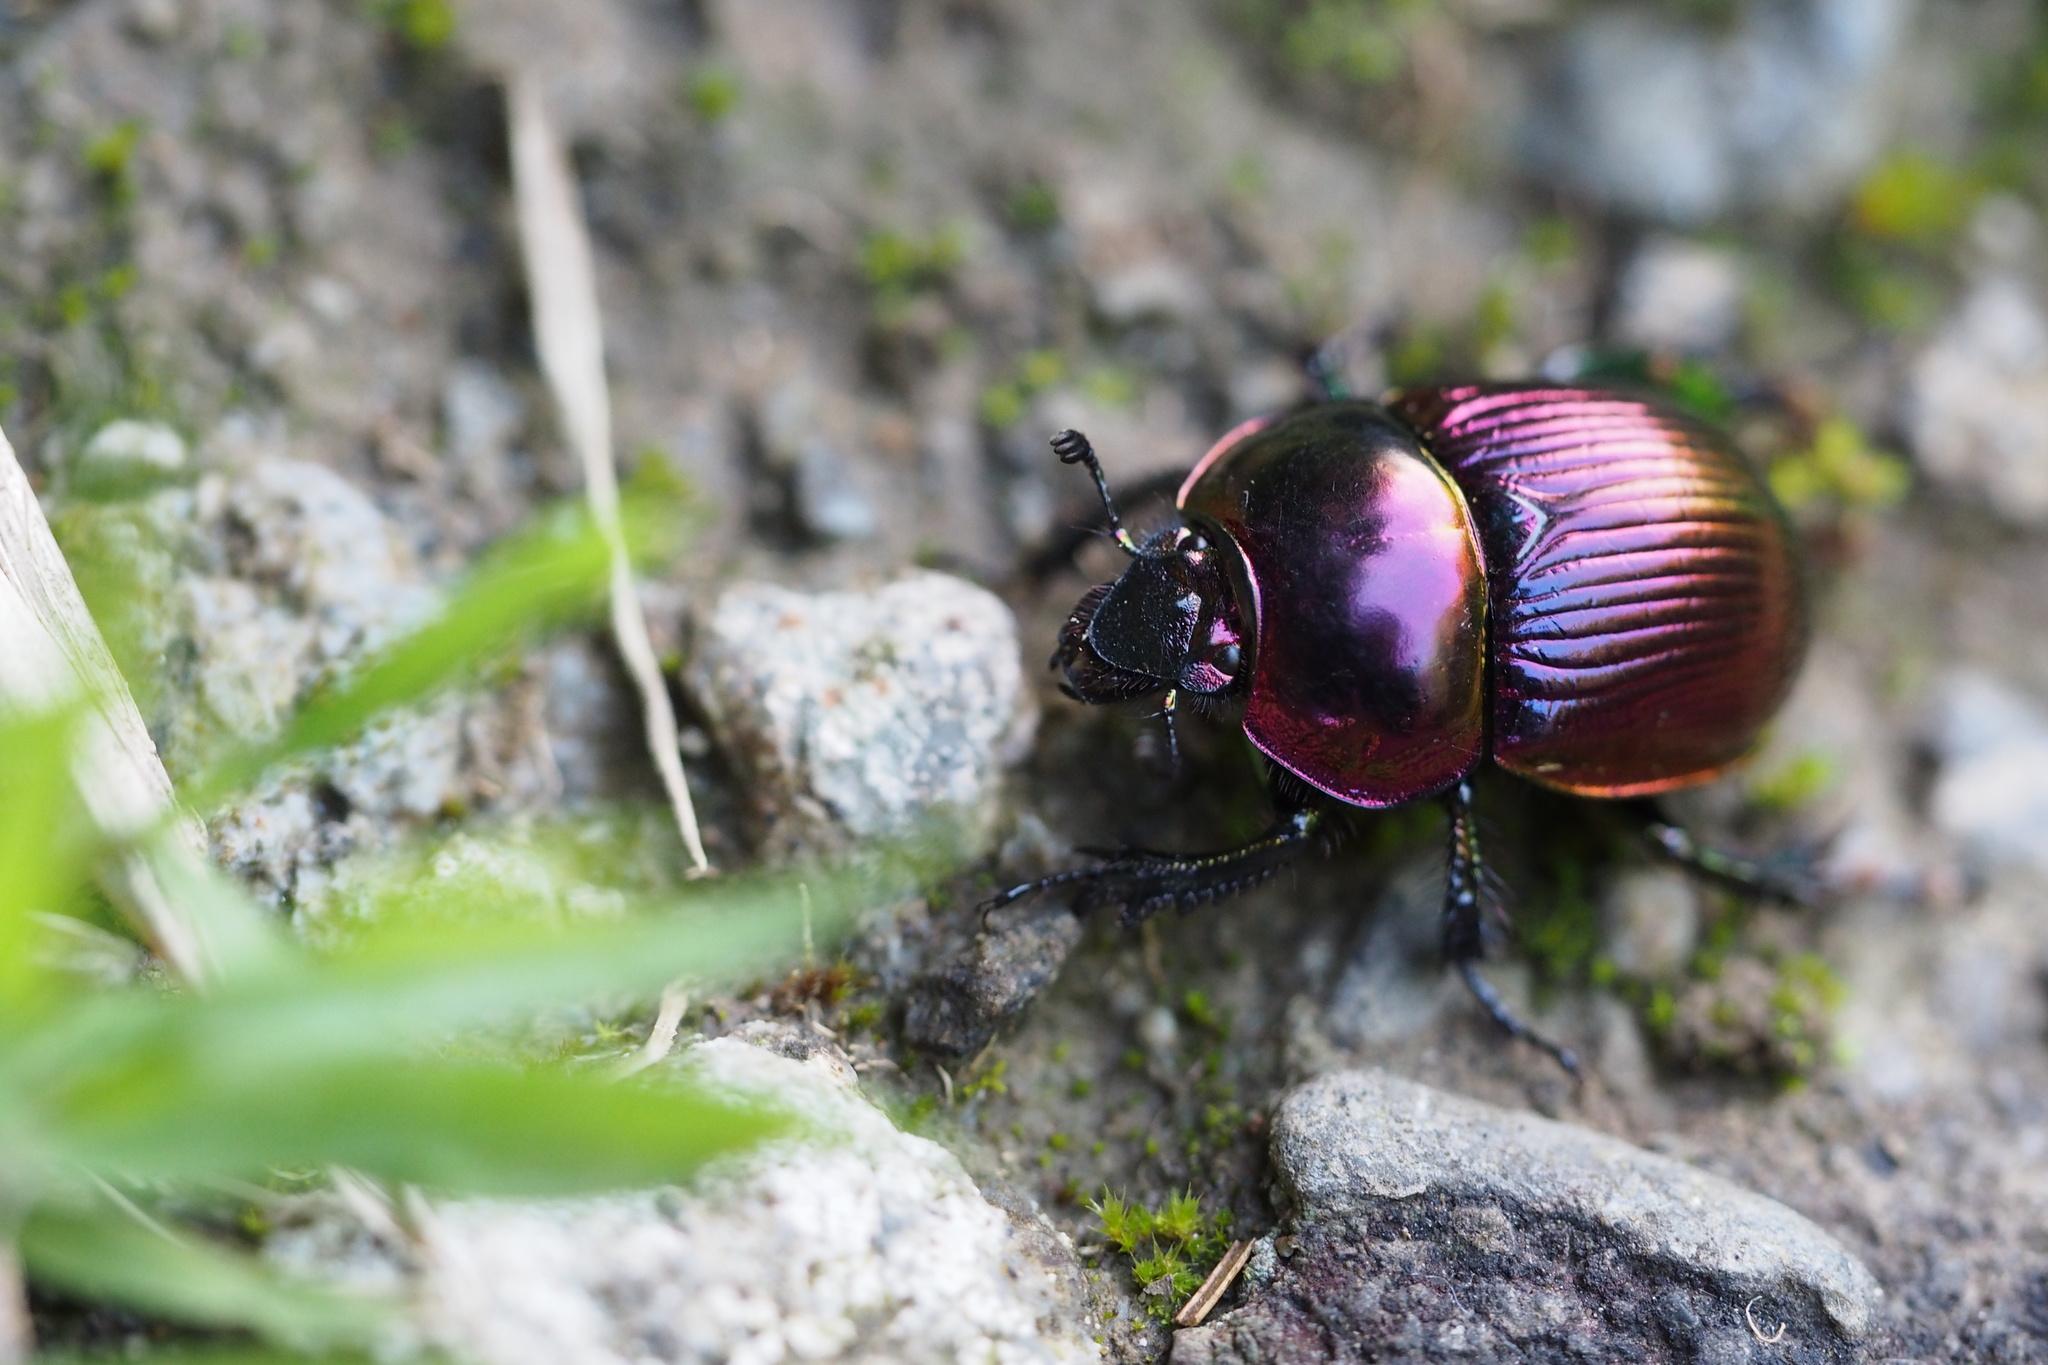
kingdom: Animalia
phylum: Arthropoda
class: Insecta
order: Coleoptera
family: Geotrupidae
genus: Phelotrupes
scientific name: Phelotrupes auratus
